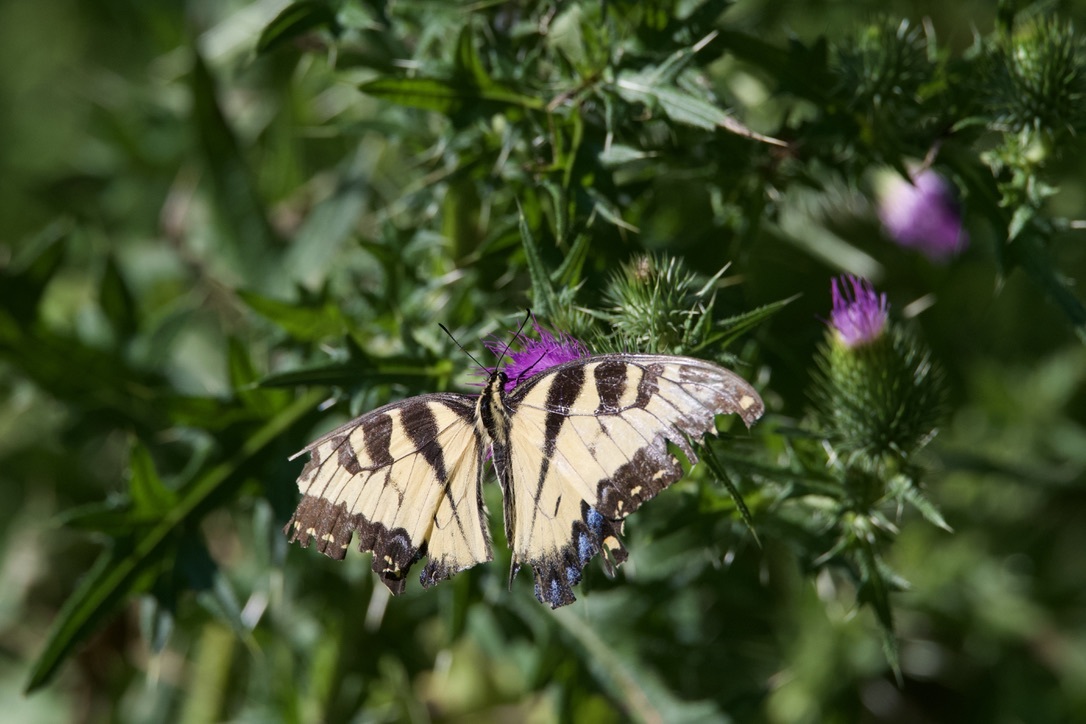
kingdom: Animalia
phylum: Arthropoda
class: Insecta
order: Lepidoptera
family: Papilionidae
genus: Papilio
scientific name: Papilio glaucus
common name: Tiger swallowtail
